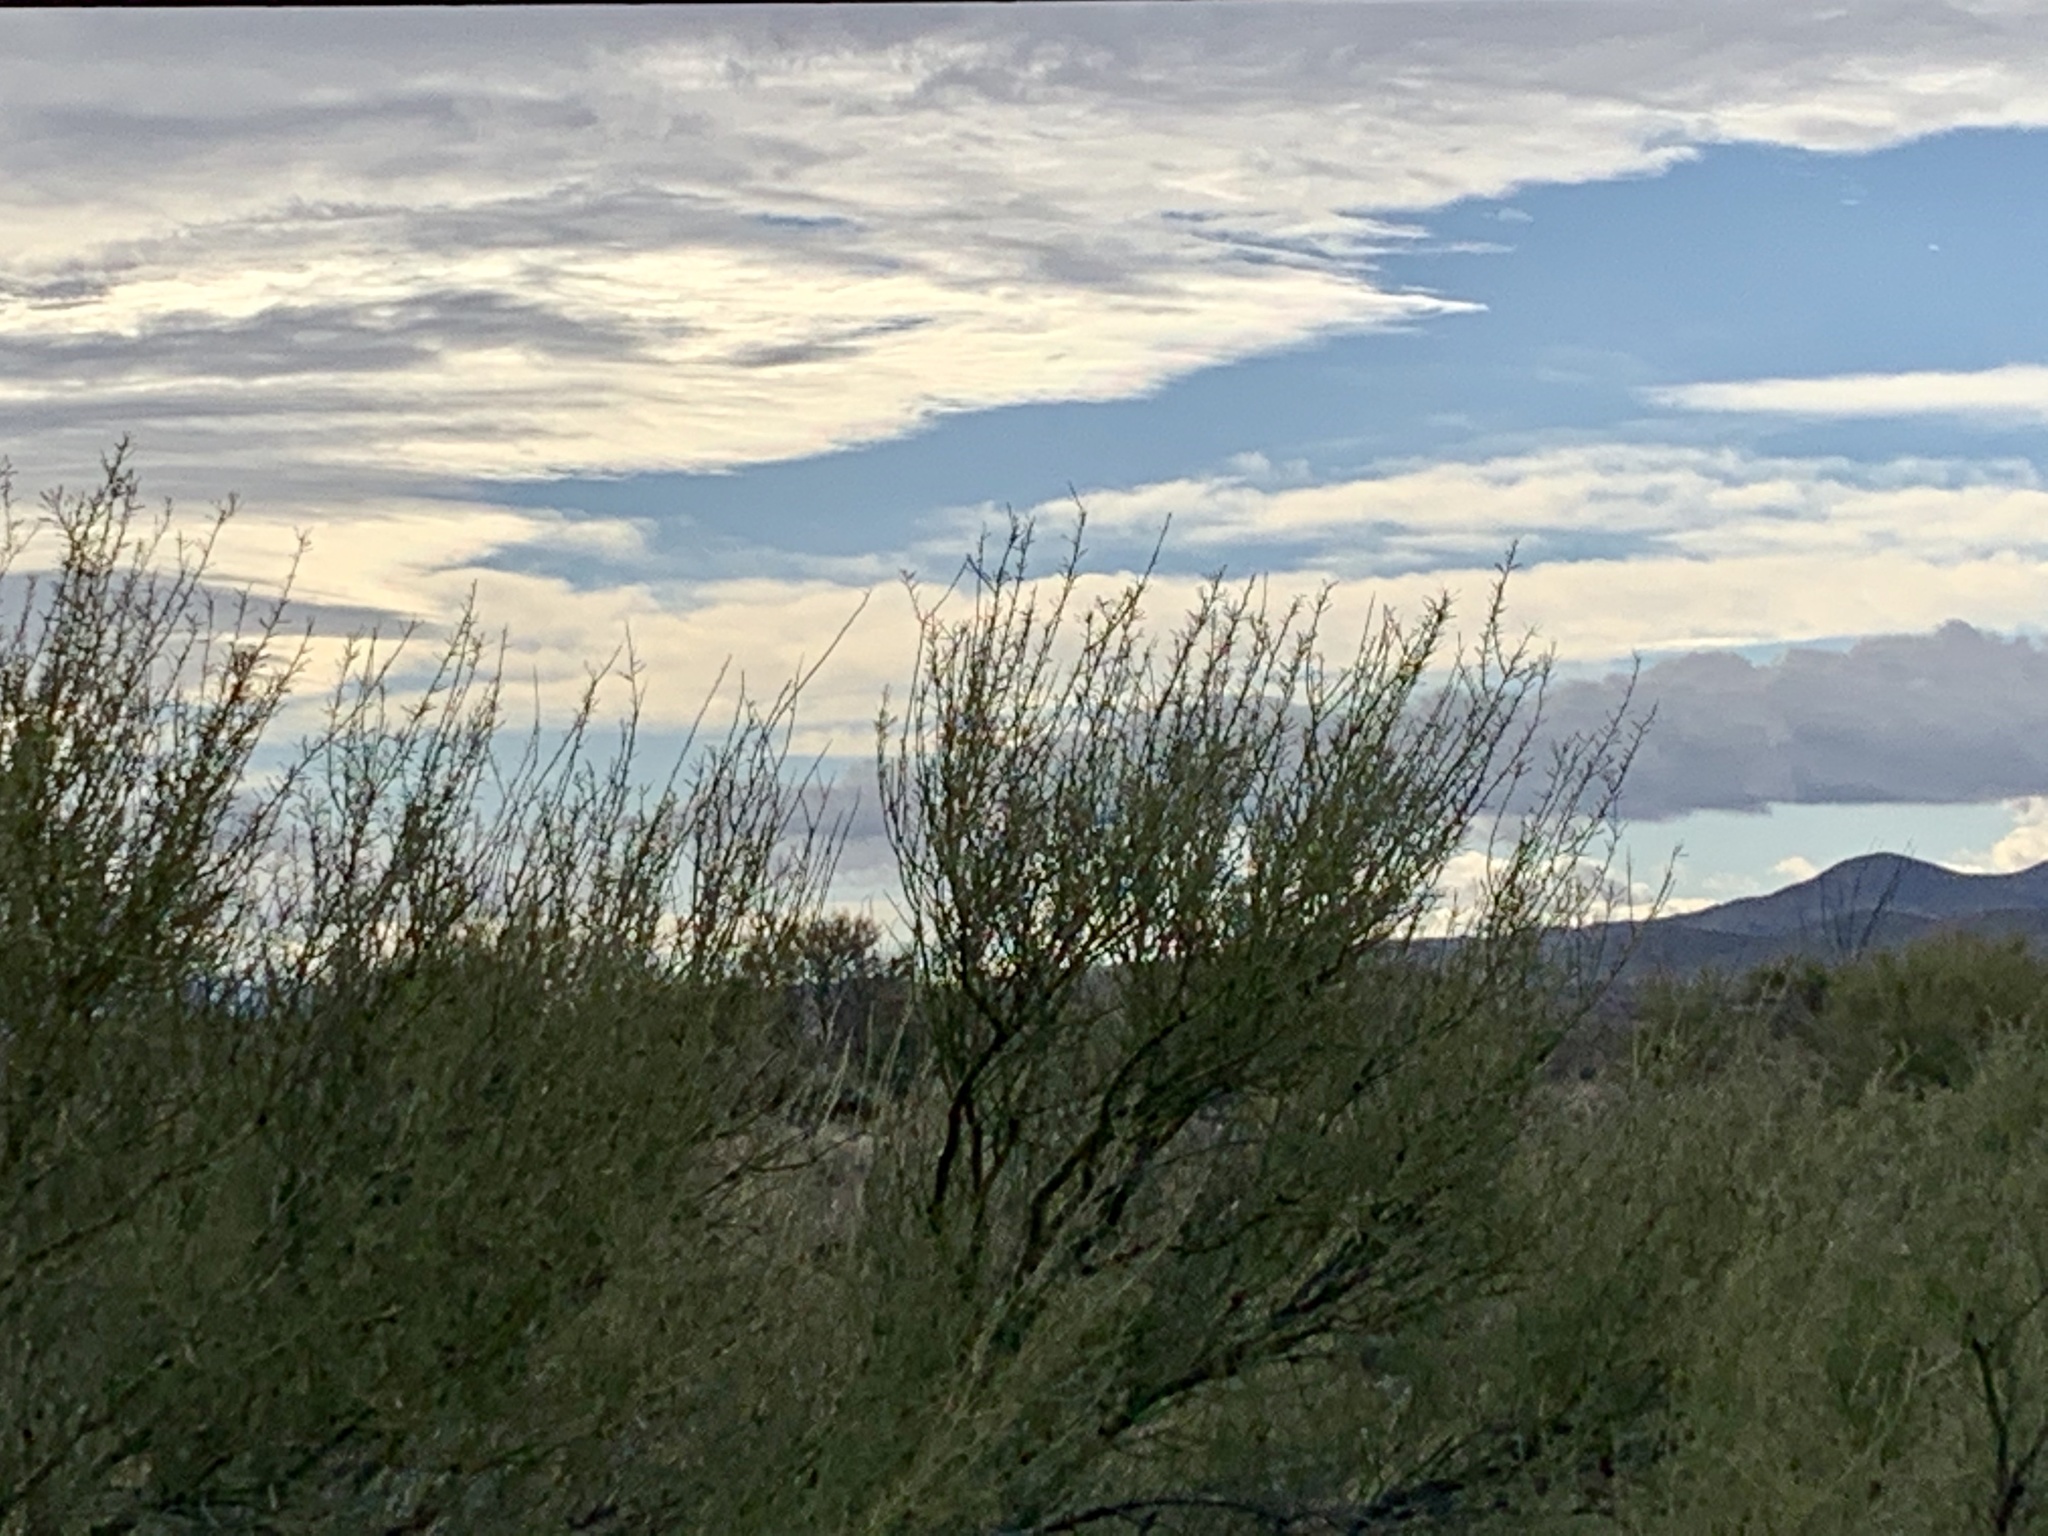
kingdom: Plantae
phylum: Tracheophyta
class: Magnoliopsida
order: Fabales
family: Fabaceae
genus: Parkinsonia
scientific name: Parkinsonia microphylla
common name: Yellow paloverde
